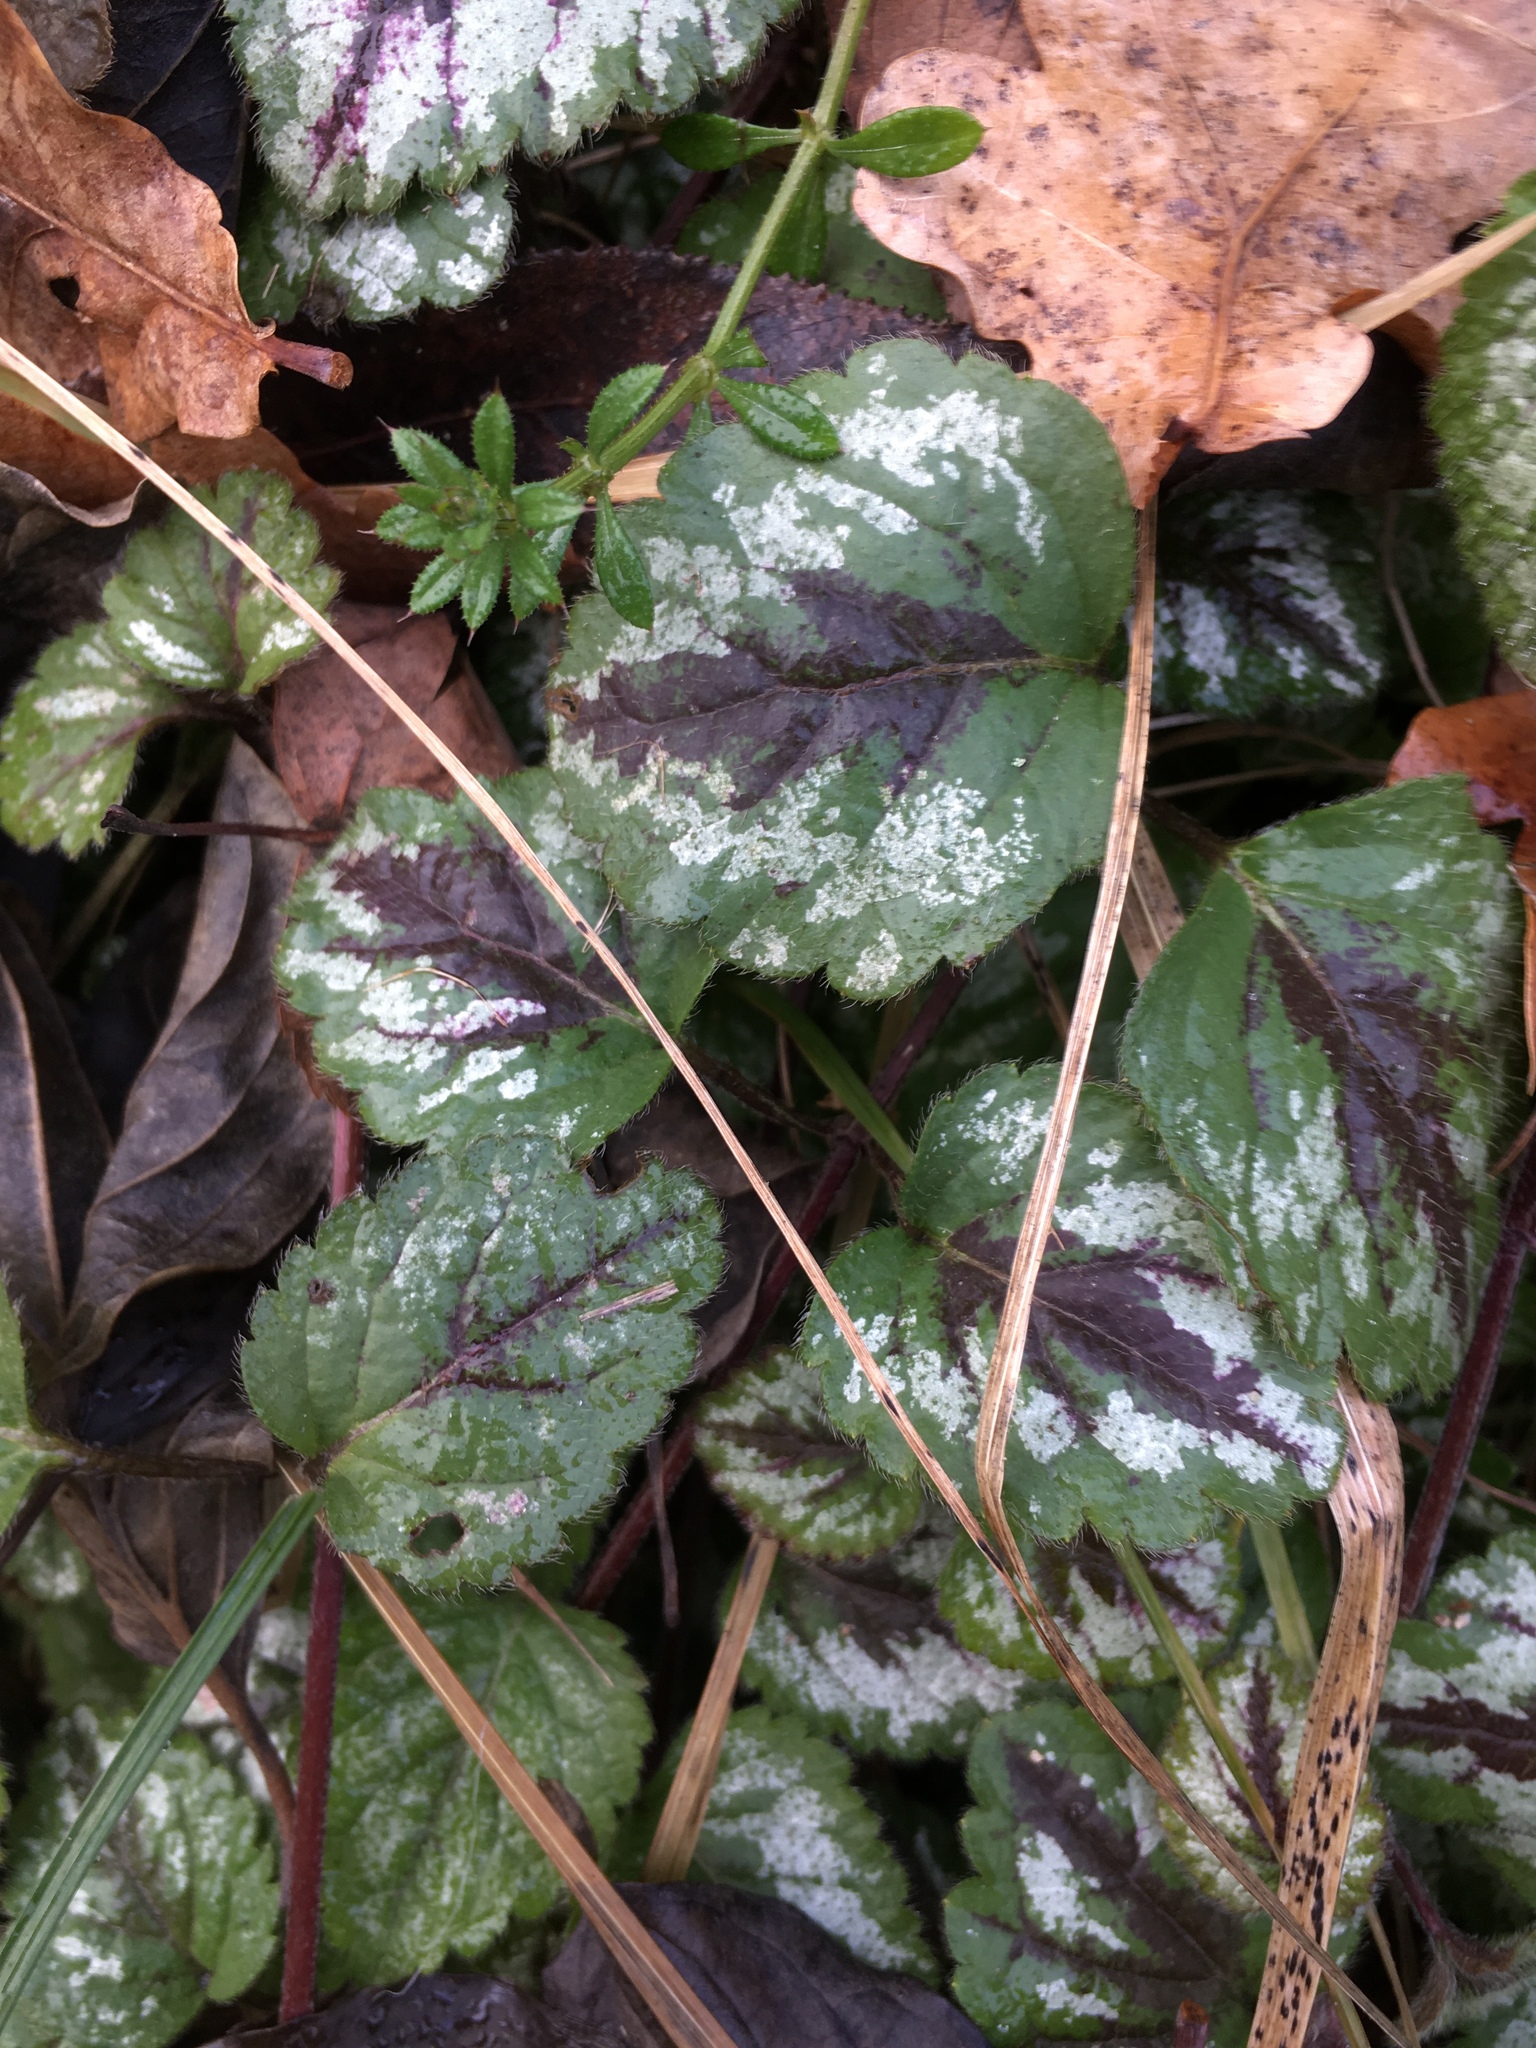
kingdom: Plantae
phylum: Tracheophyta
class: Magnoliopsida
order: Lamiales
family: Lamiaceae
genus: Lamium
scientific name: Lamium galeobdolon
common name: Yellow archangel
